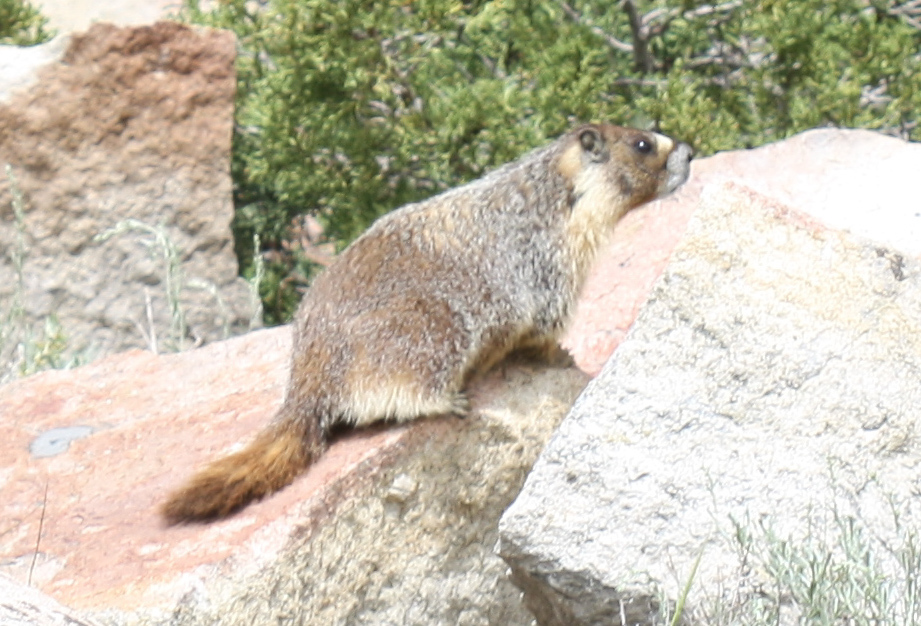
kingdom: Animalia
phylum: Chordata
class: Mammalia
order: Rodentia
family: Sciuridae
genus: Marmota
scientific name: Marmota flaviventris
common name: Yellow-bellied marmot
